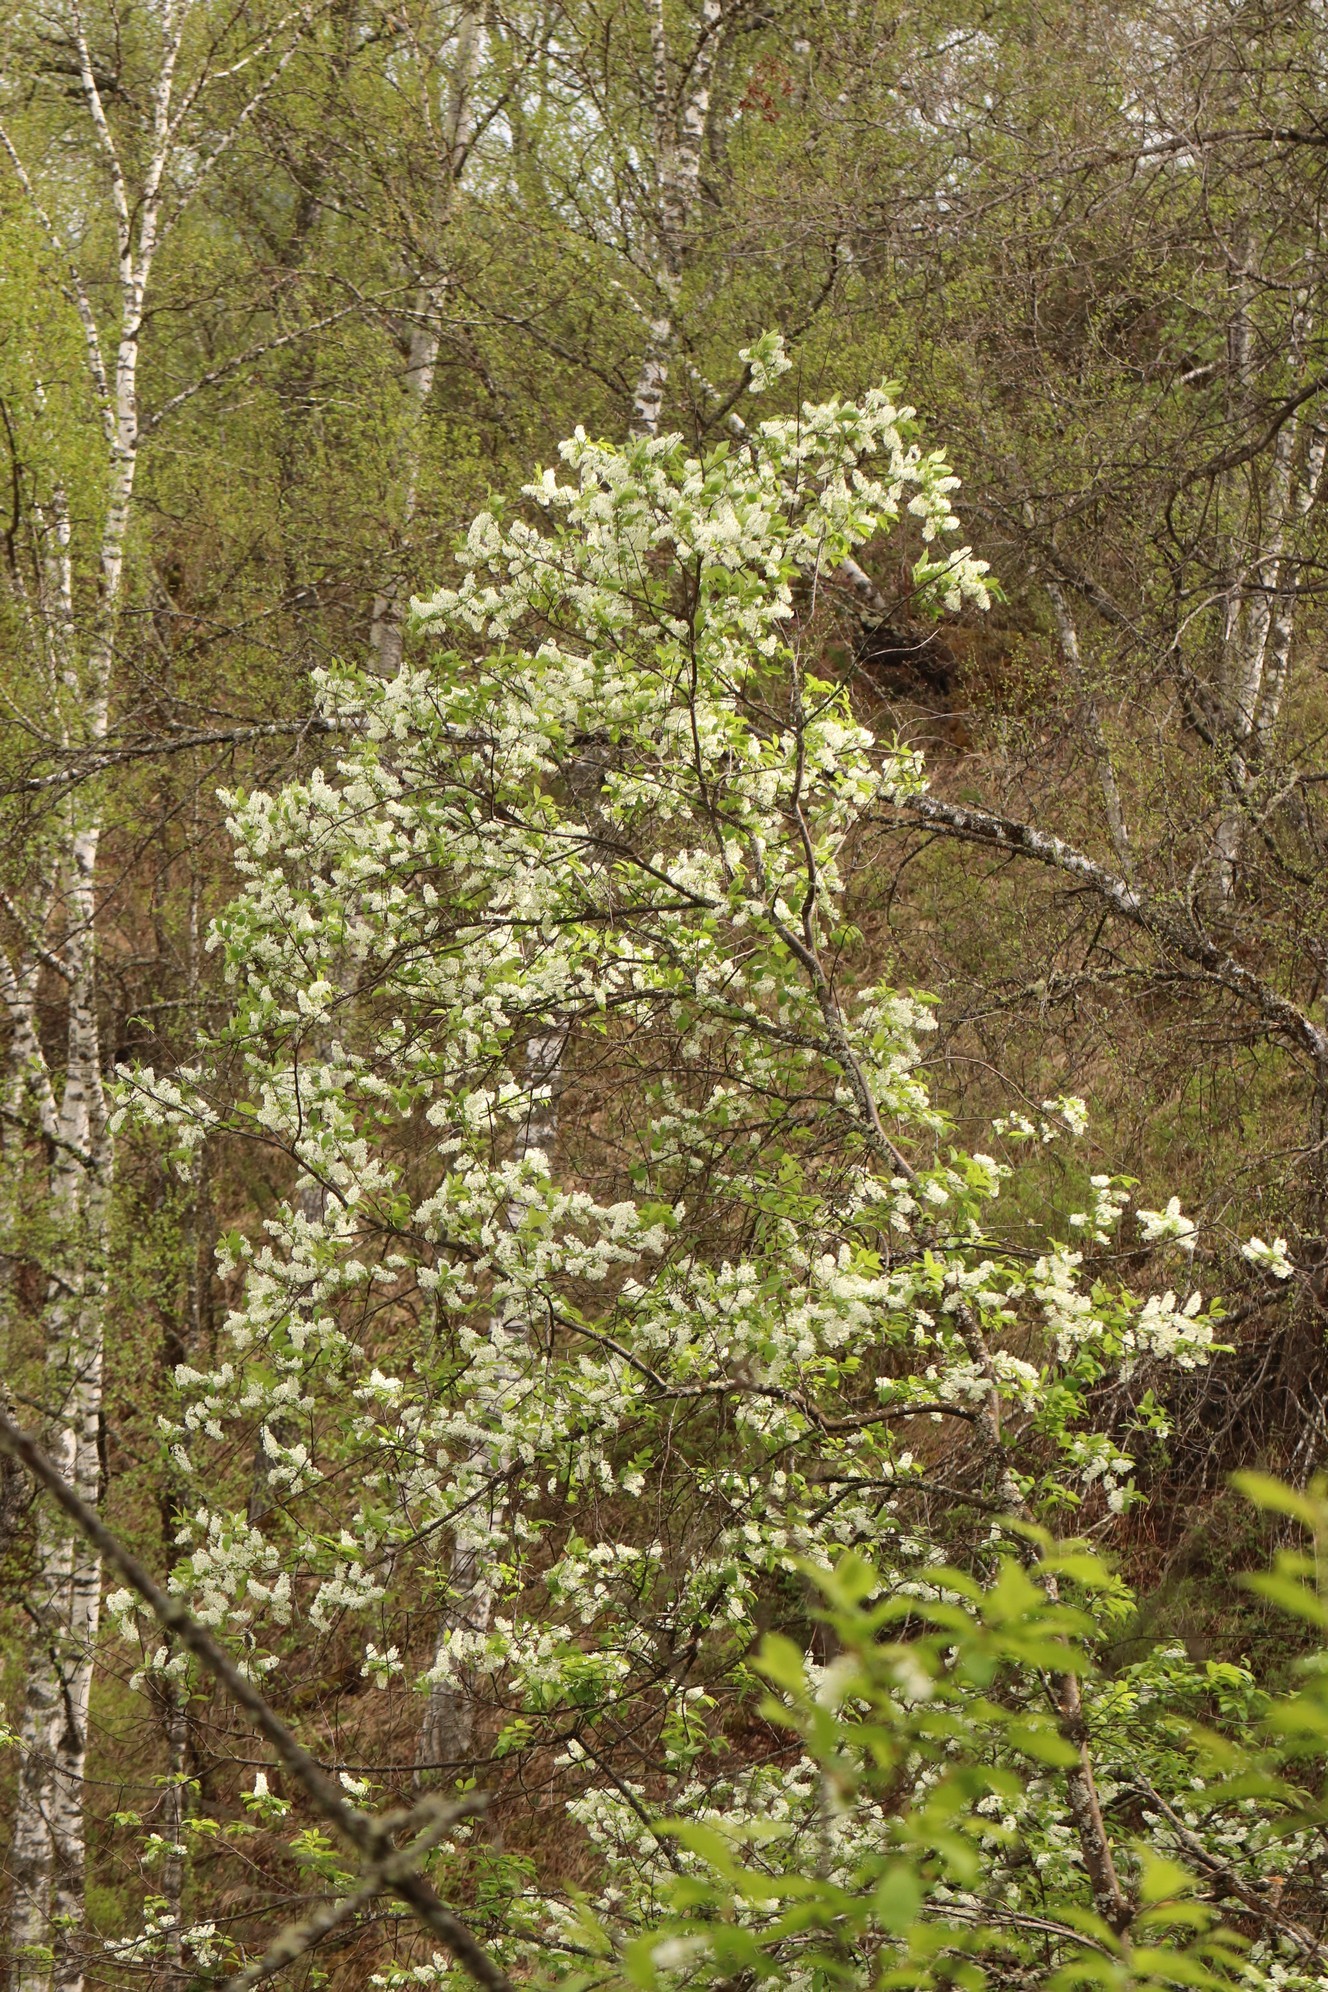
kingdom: Plantae
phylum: Tracheophyta
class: Magnoliopsida
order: Rosales
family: Rosaceae
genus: Prunus
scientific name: Prunus padus
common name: Bird cherry
